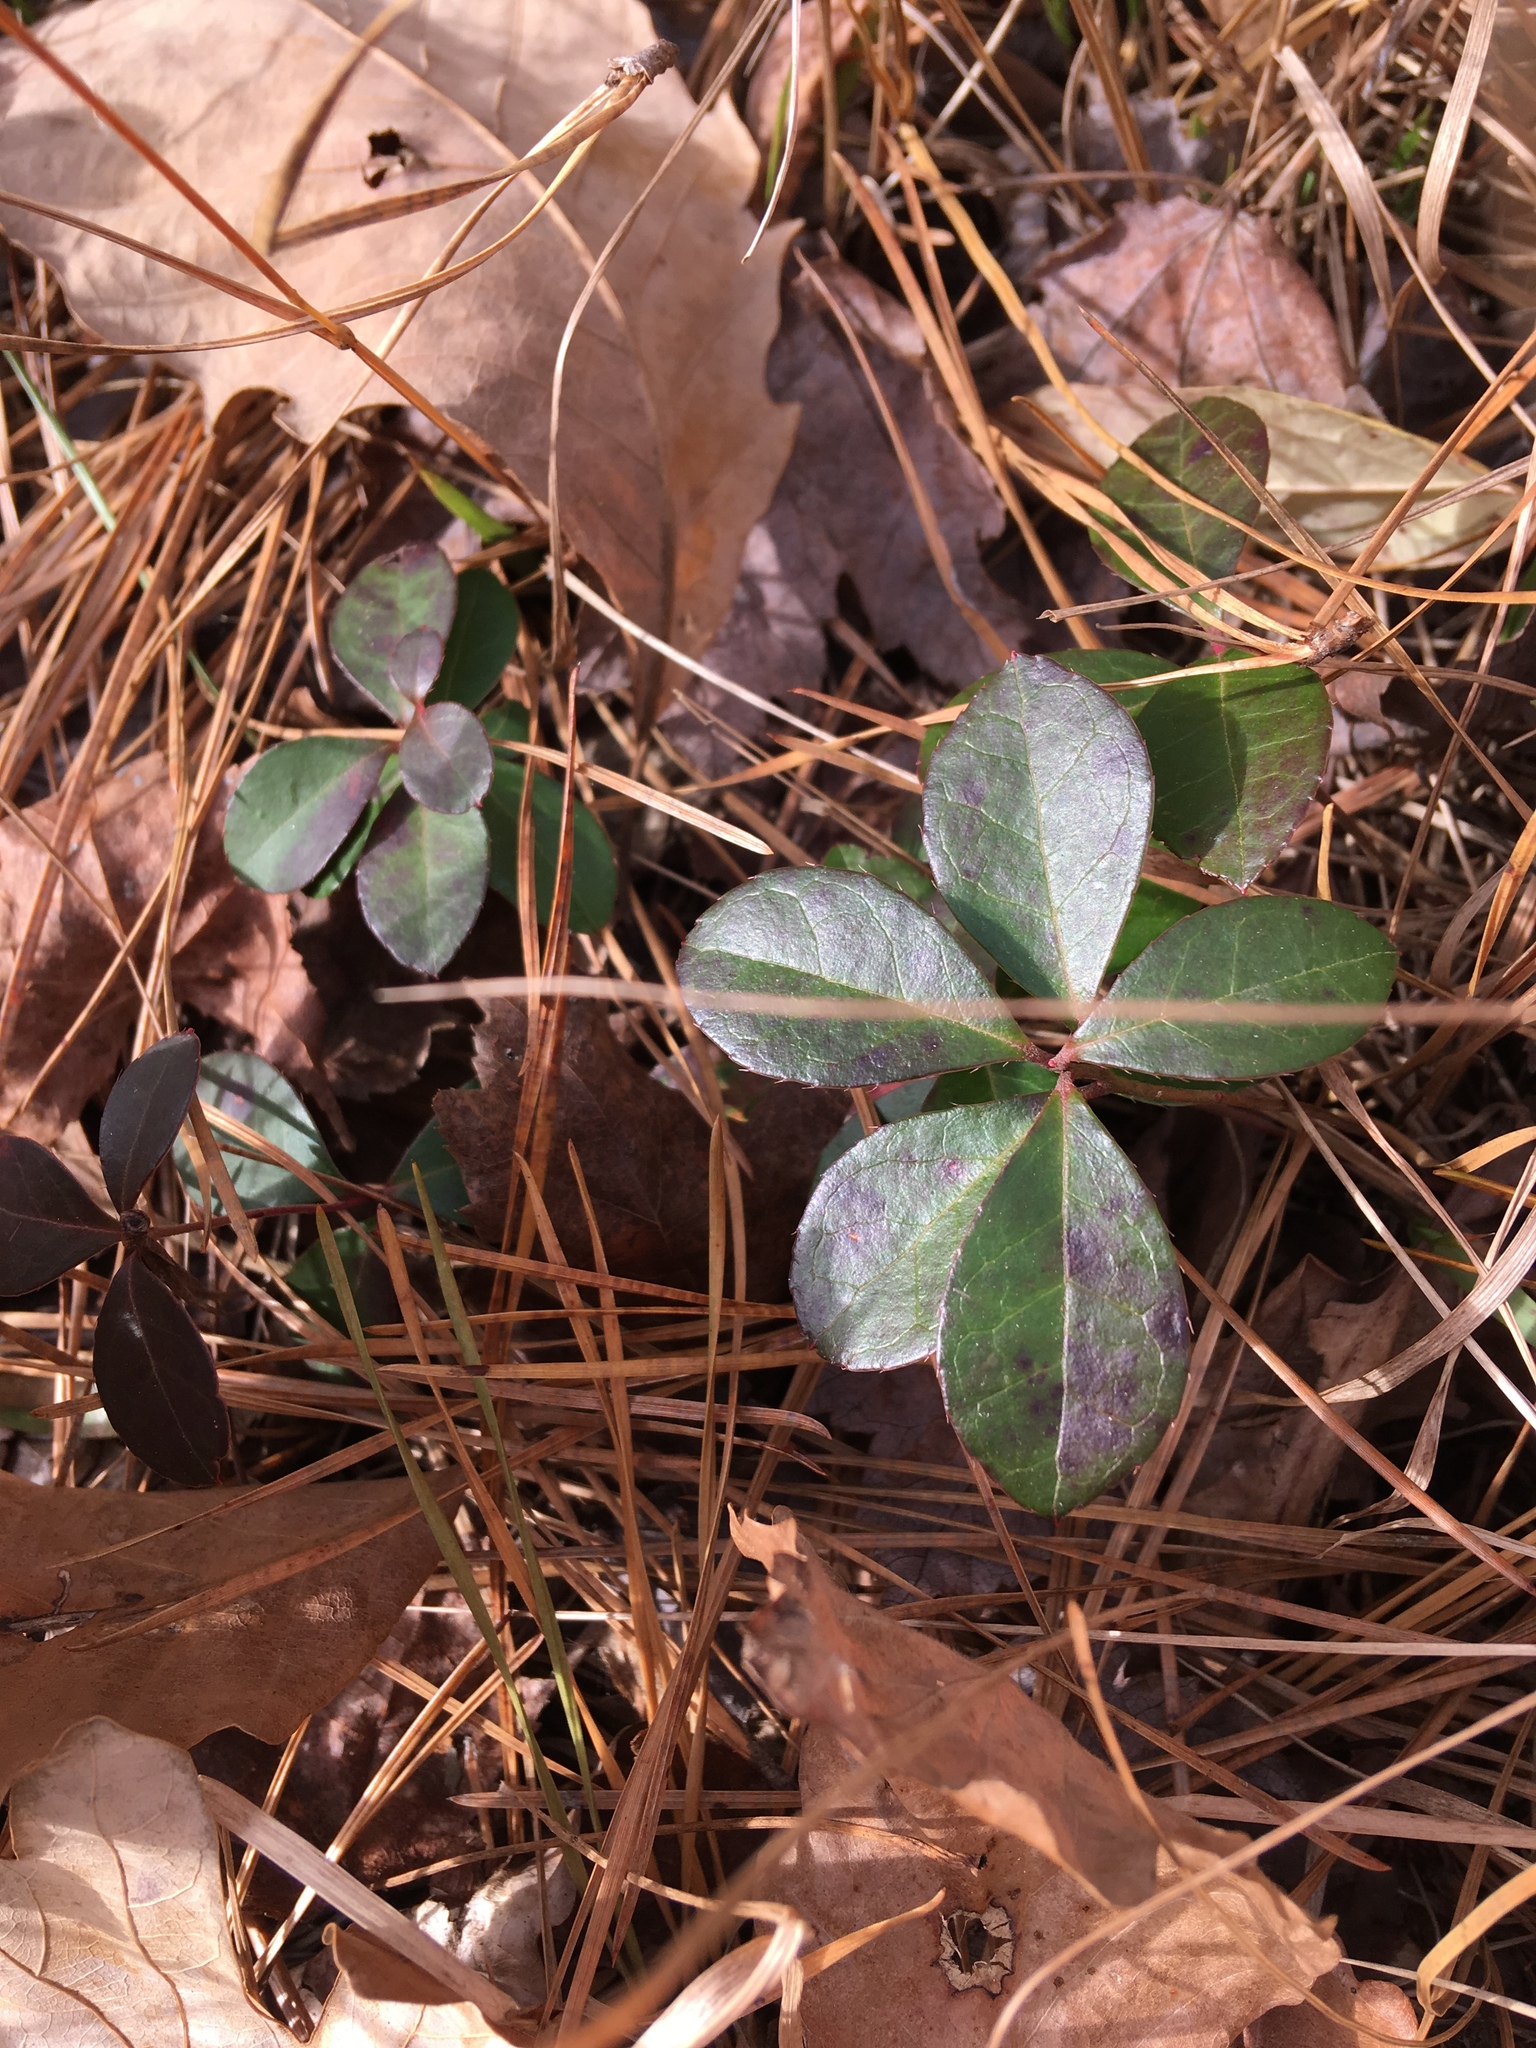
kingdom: Plantae
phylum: Tracheophyta
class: Magnoliopsida
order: Ericales
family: Ericaceae
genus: Gaultheria
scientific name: Gaultheria procumbens
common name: Checkerberry
